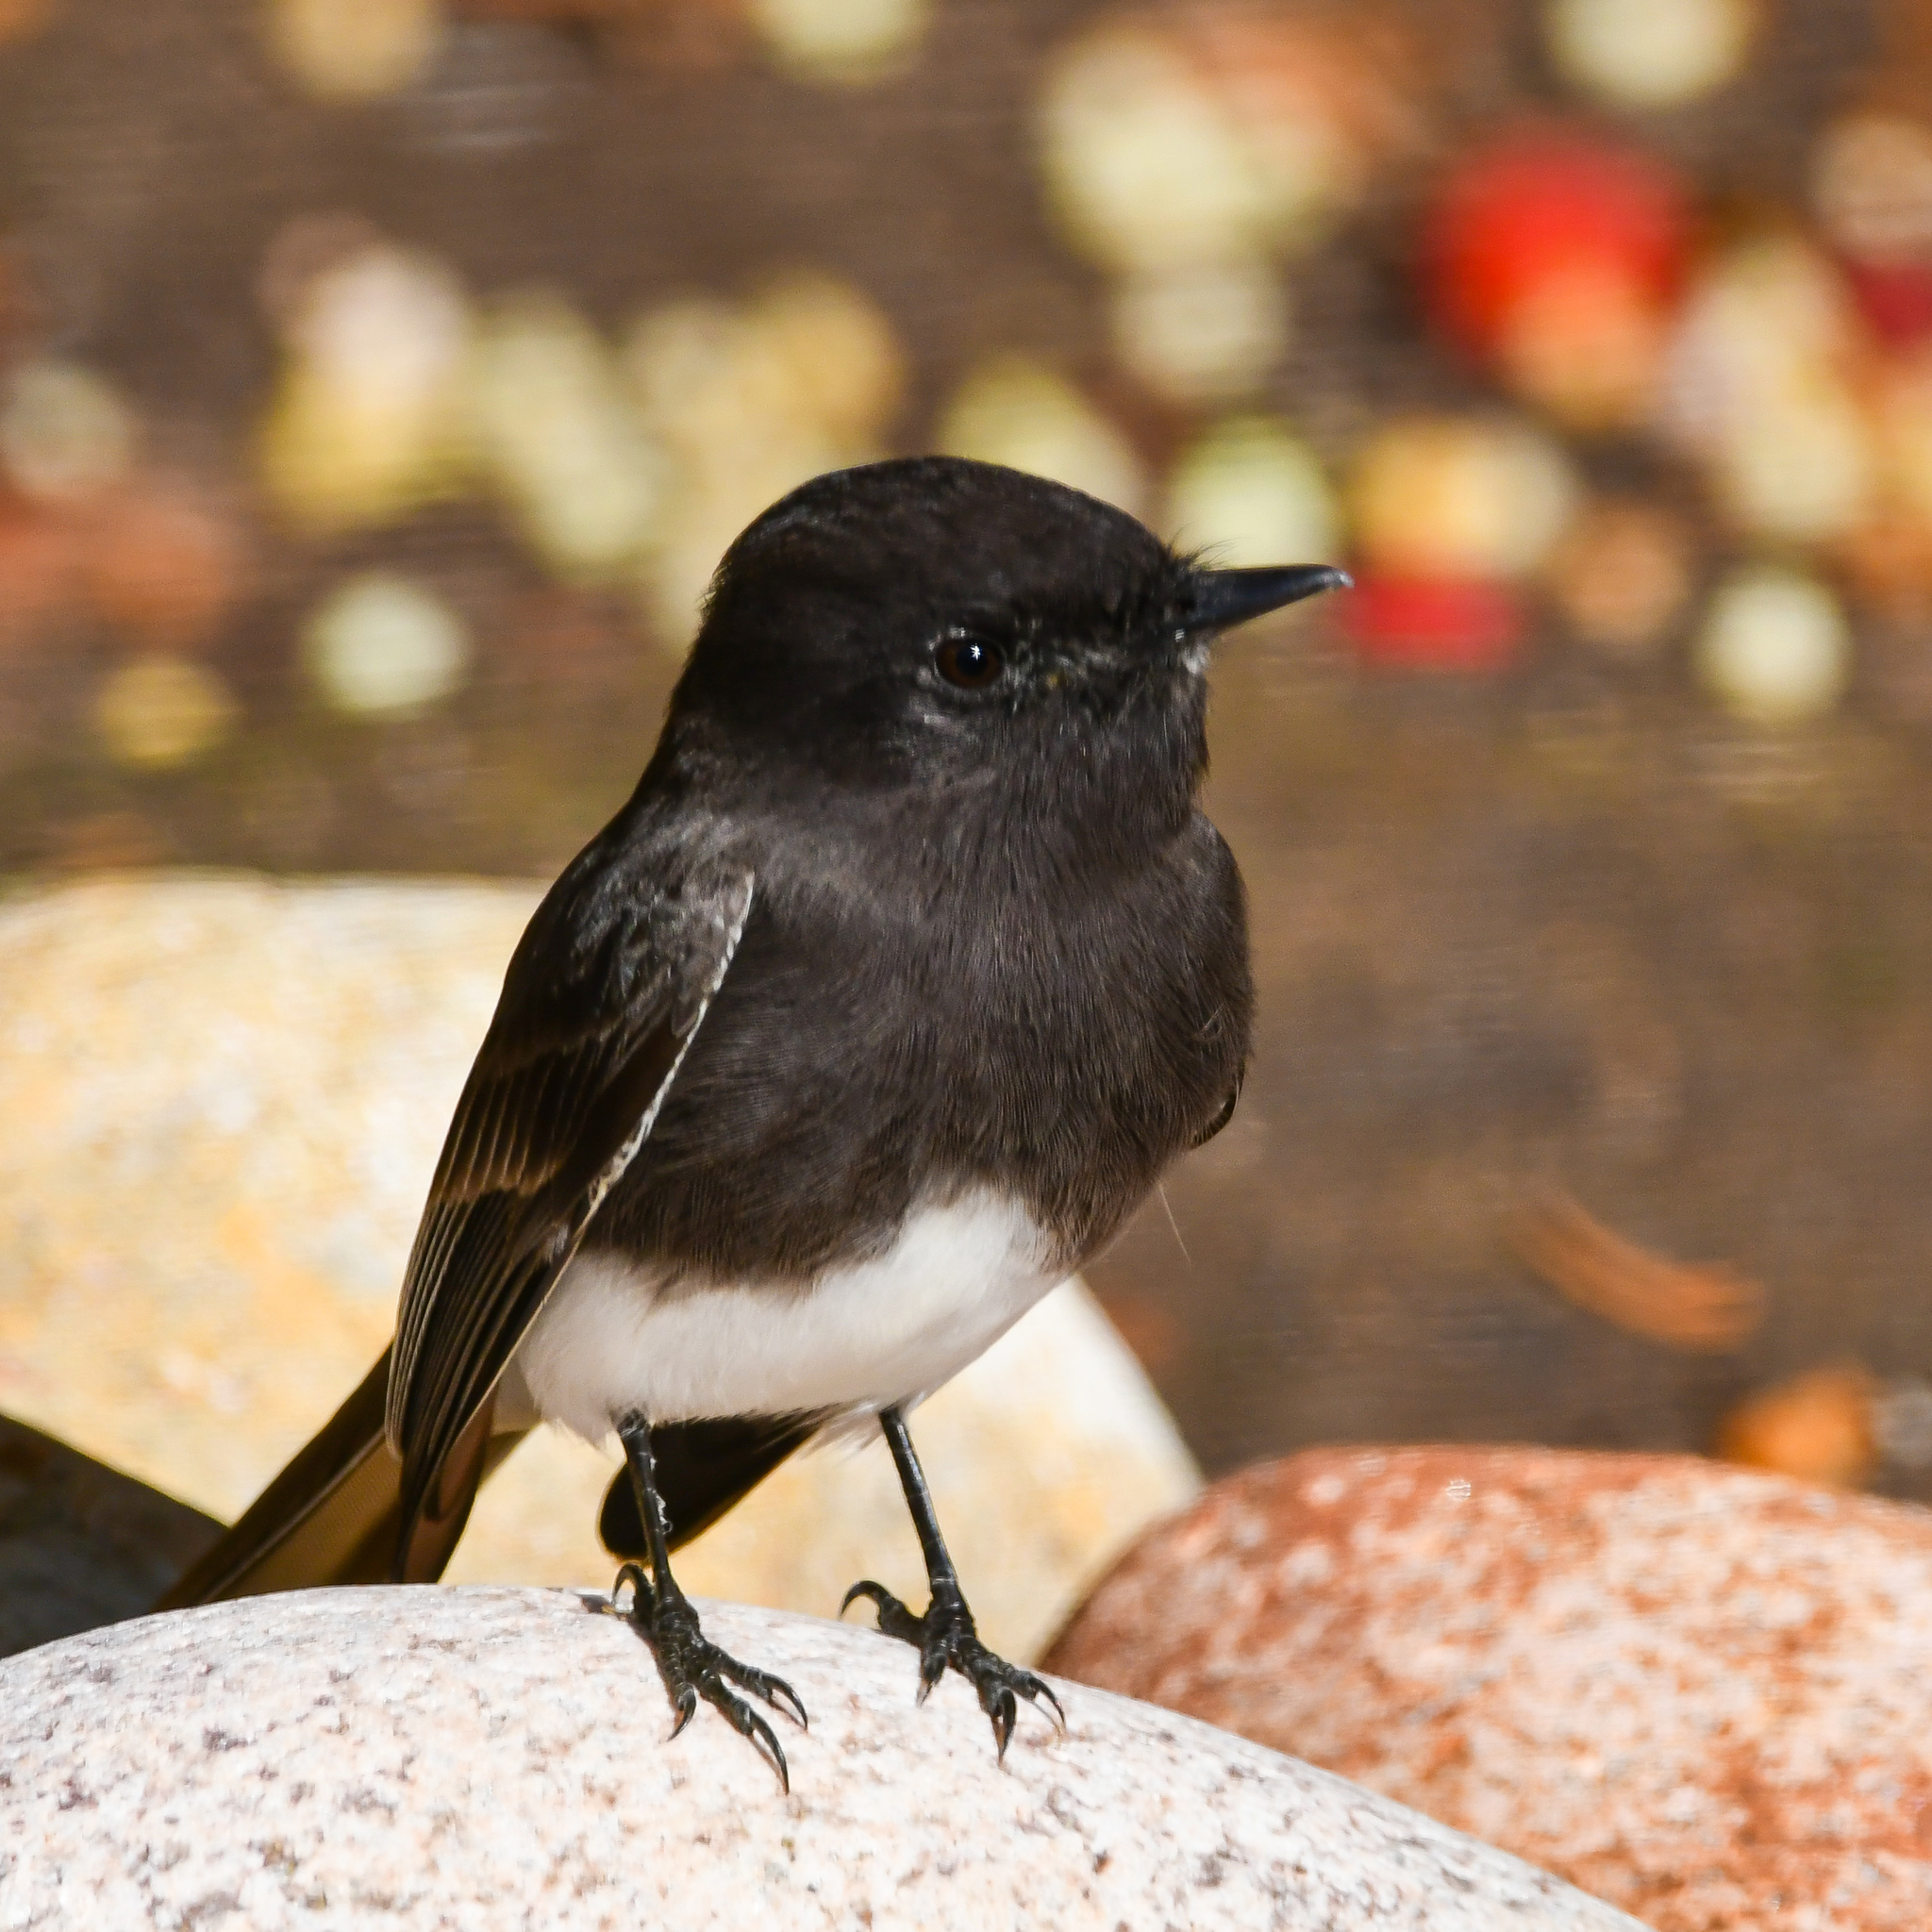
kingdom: Animalia
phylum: Chordata
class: Aves
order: Passeriformes
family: Tyrannidae
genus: Sayornis
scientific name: Sayornis nigricans
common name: Black phoebe
